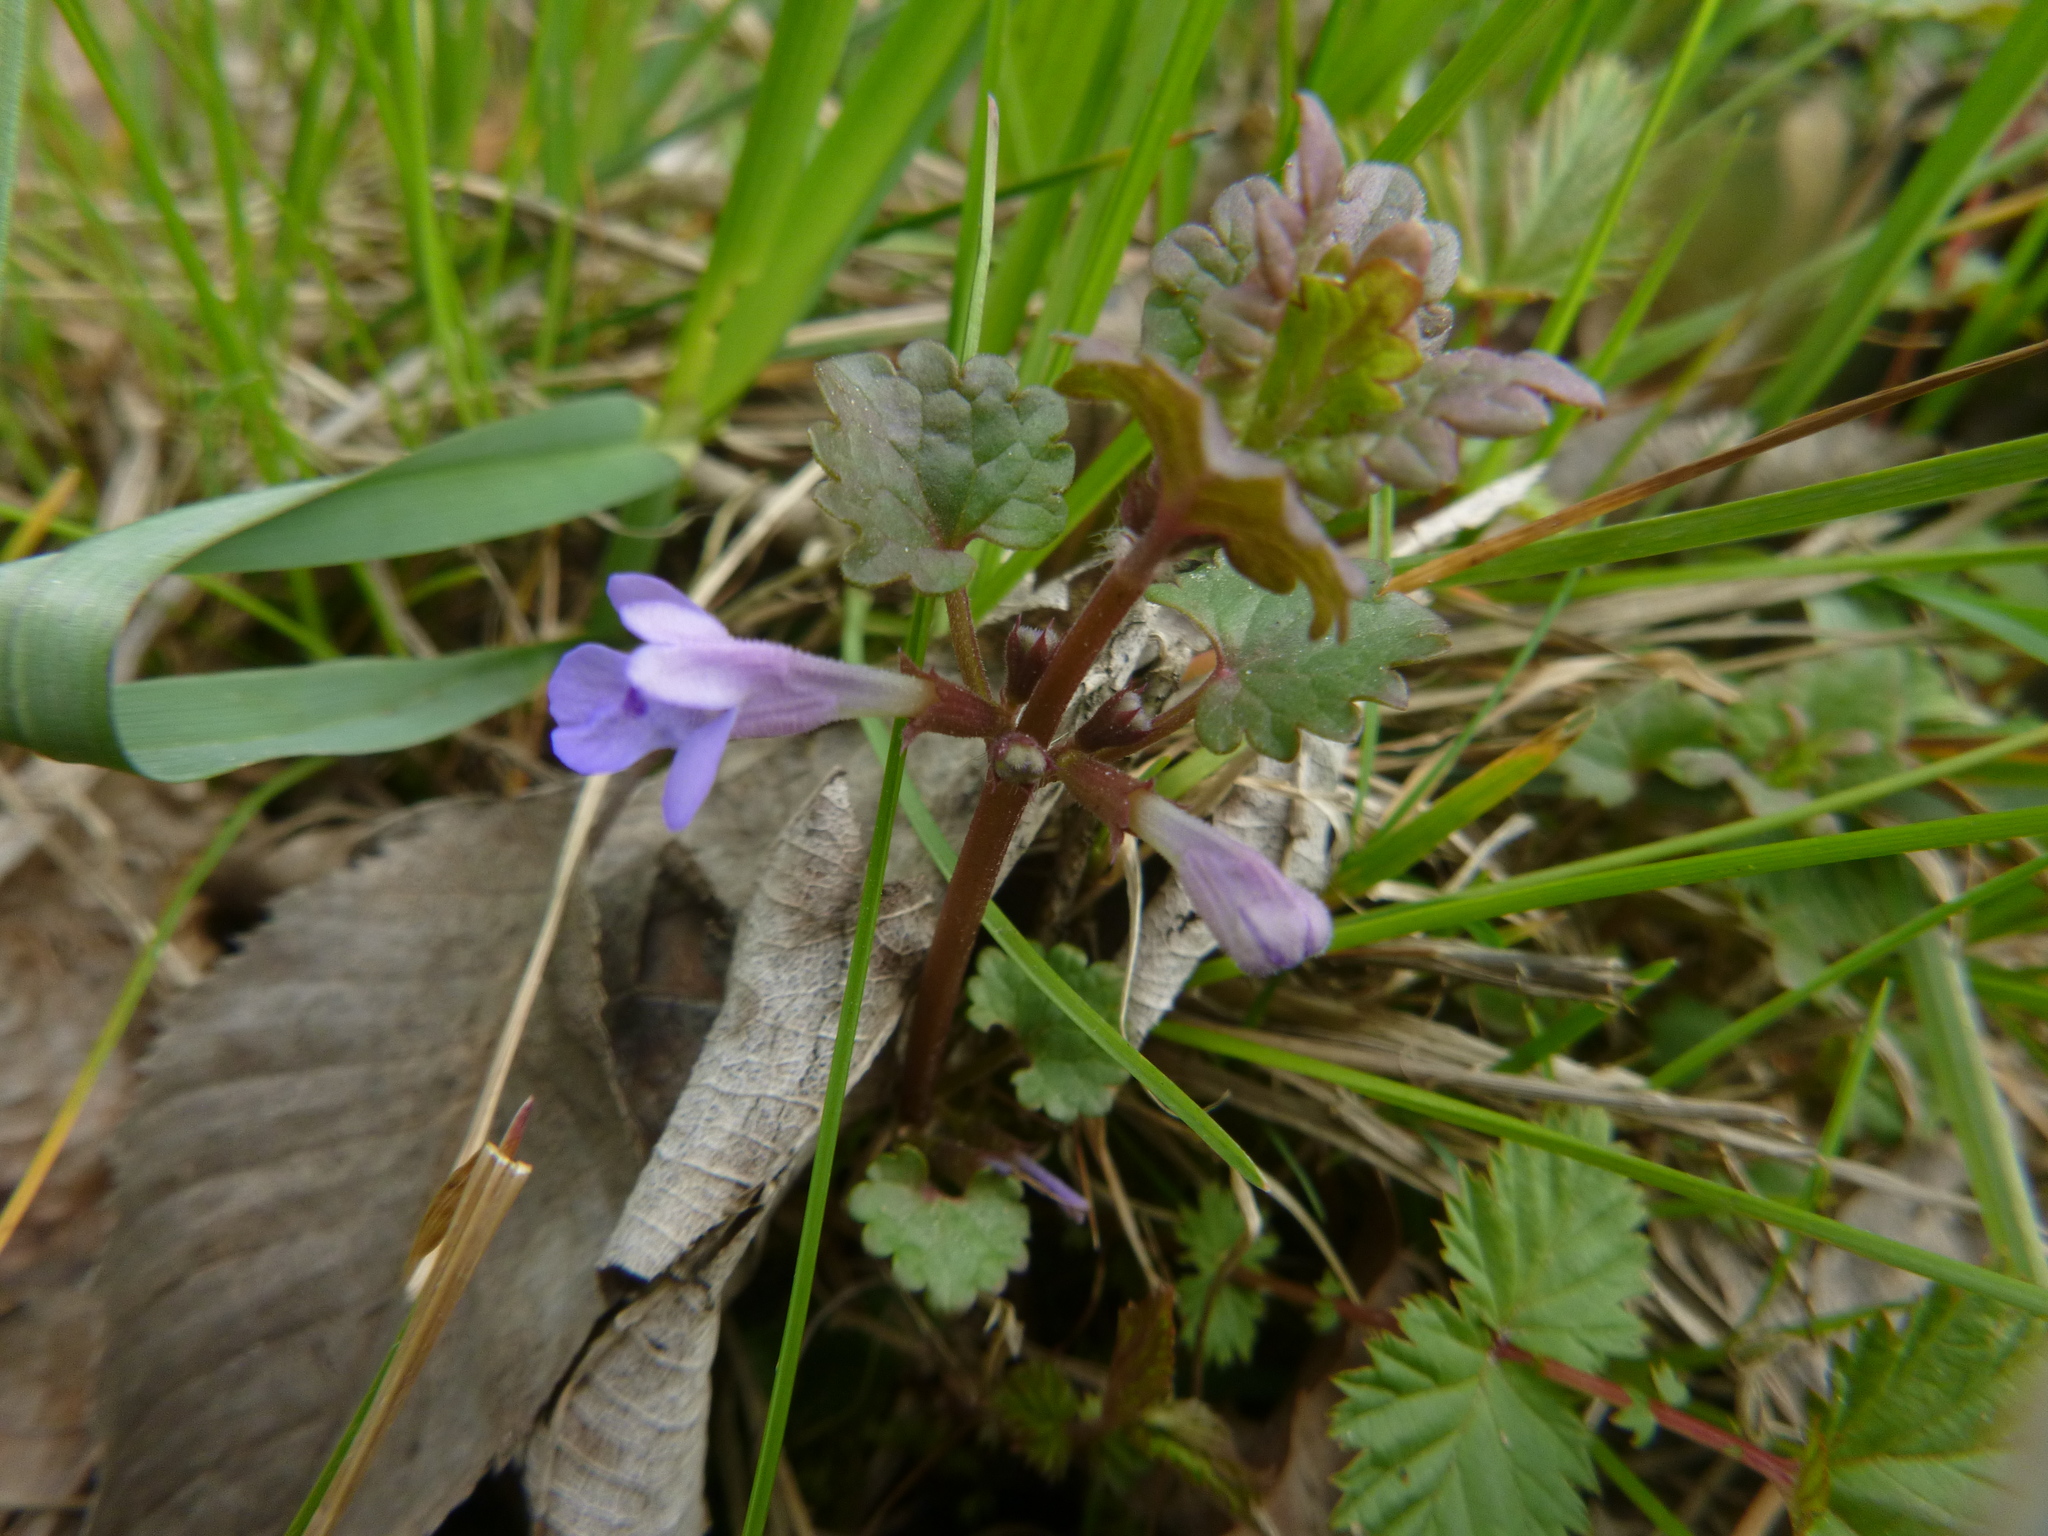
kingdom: Plantae
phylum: Tracheophyta
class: Magnoliopsida
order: Lamiales
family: Lamiaceae
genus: Glechoma
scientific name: Glechoma hederacea
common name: Ground ivy
